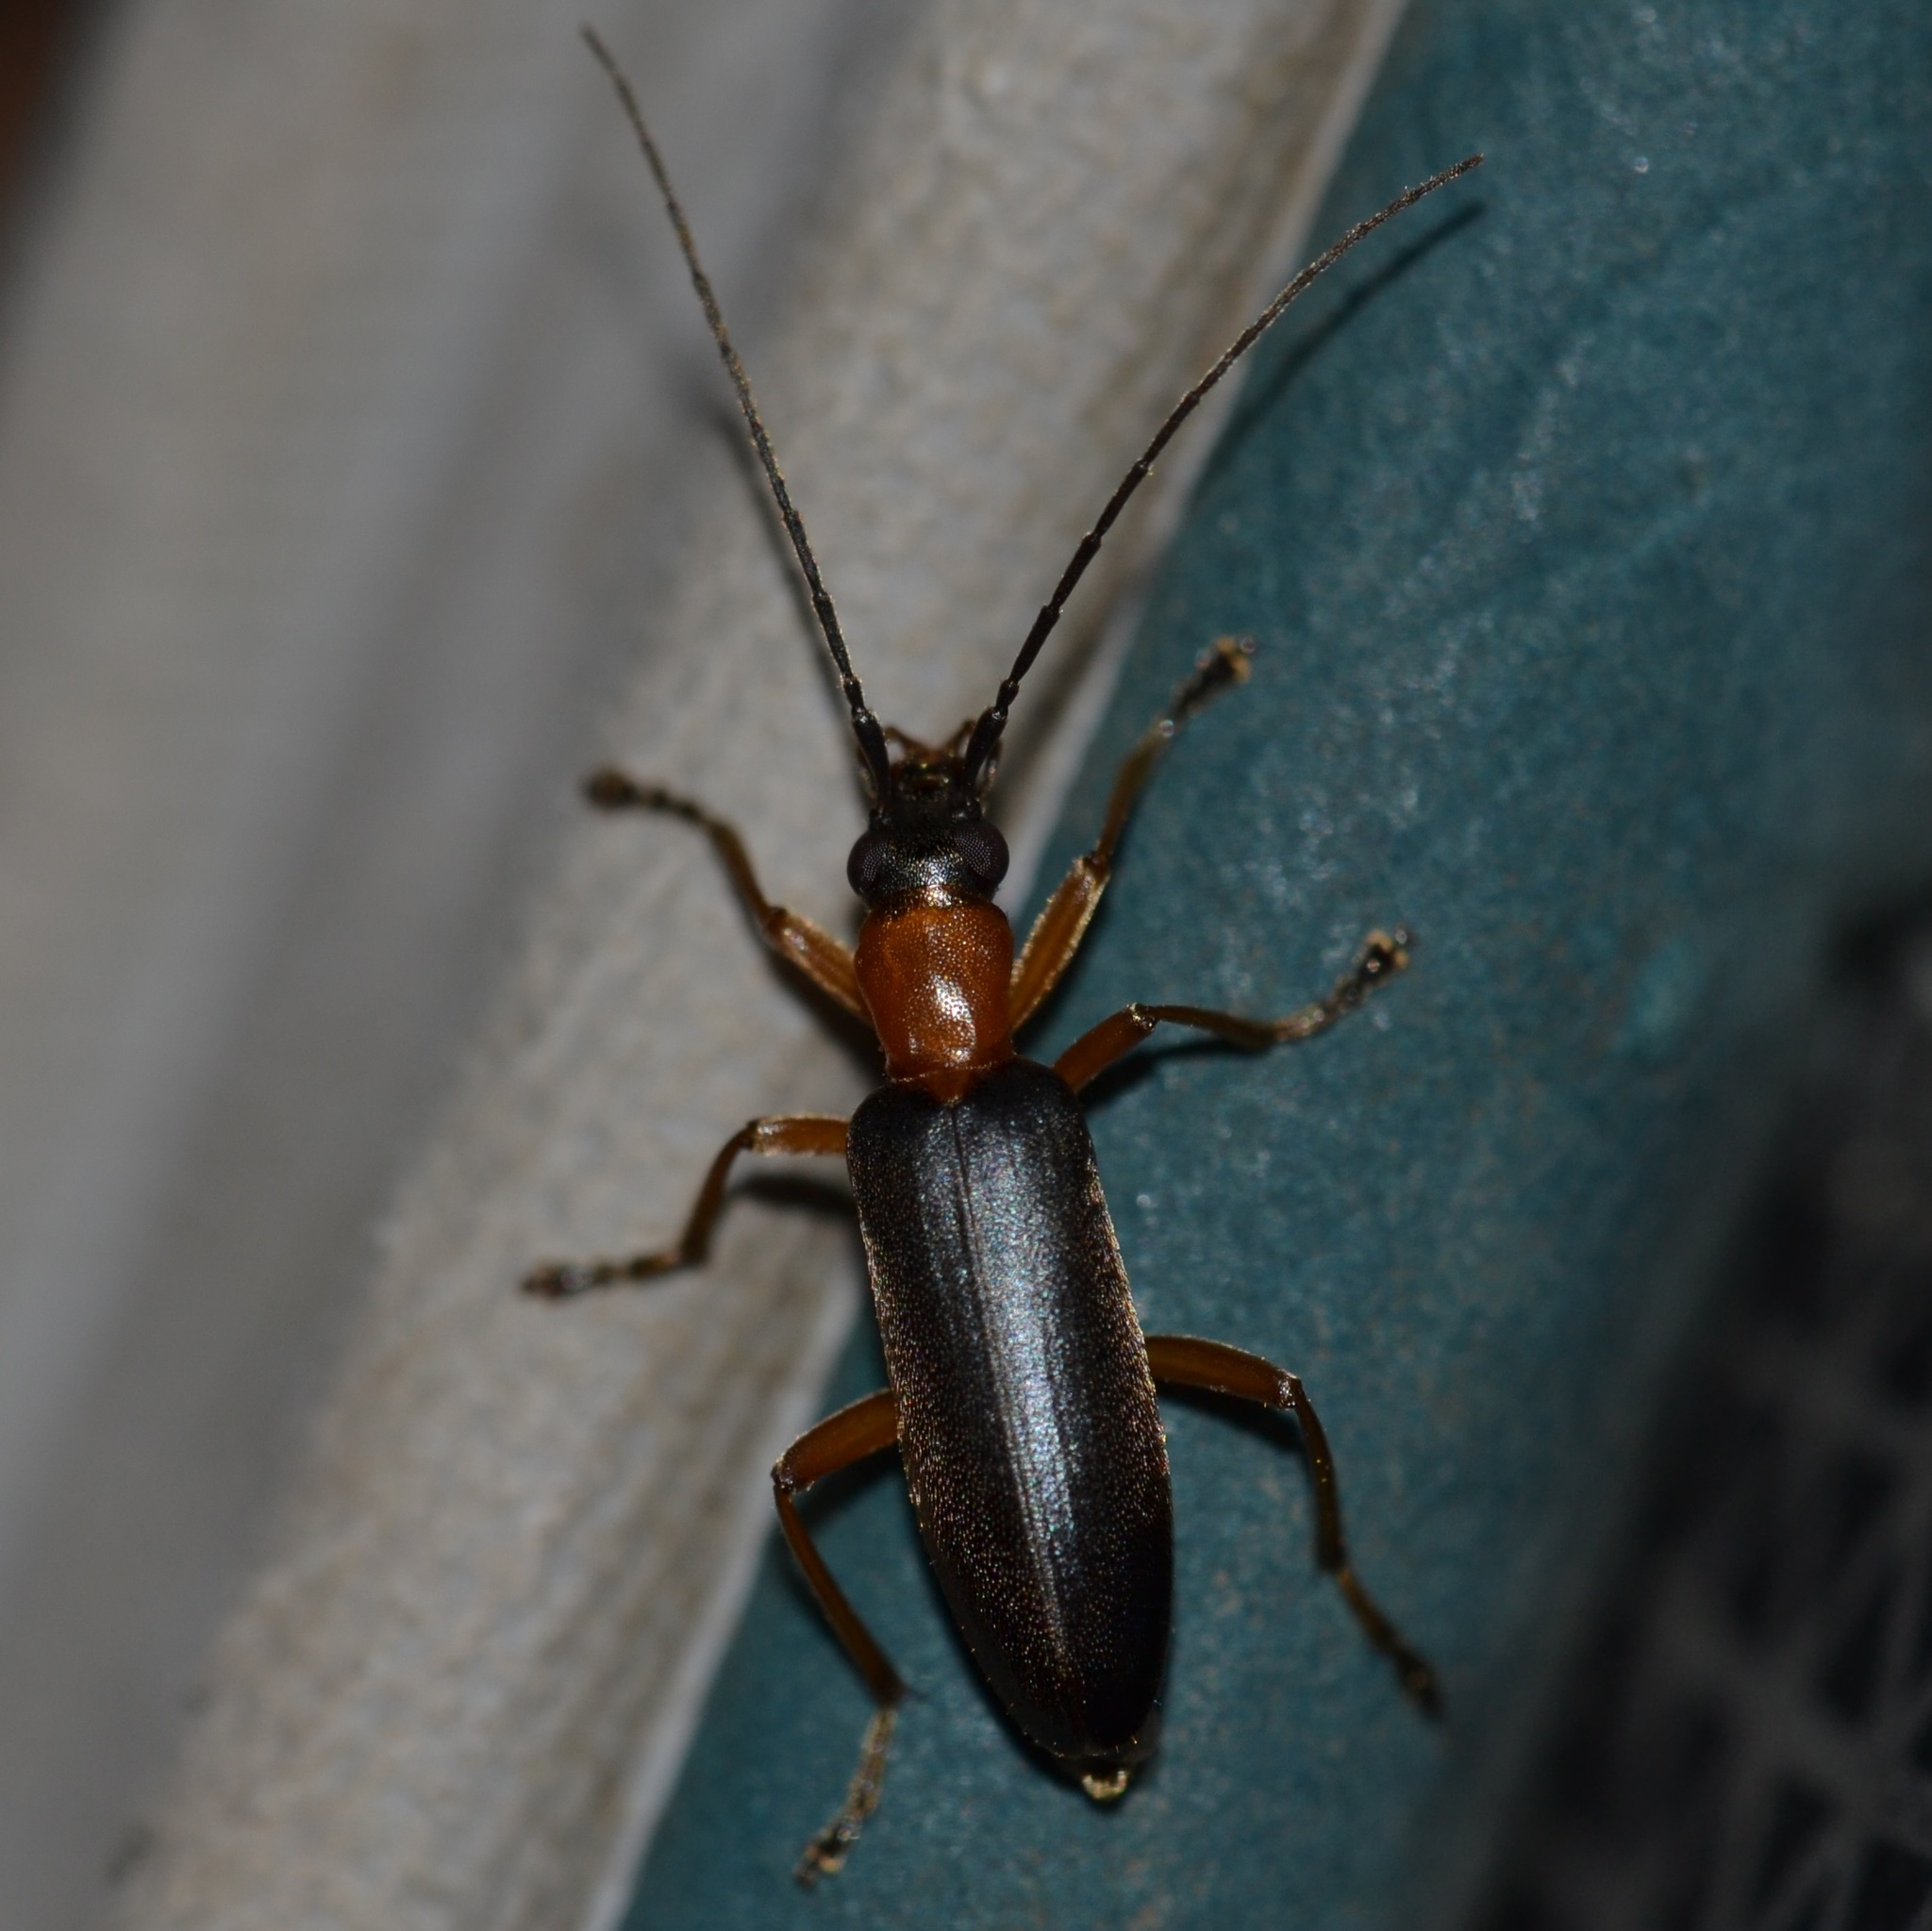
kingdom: Animalia
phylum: Arthropoda
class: Insecta
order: Coleoptera
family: Oedemeridae
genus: Ananca
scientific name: Ananca bicolor
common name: Red-black false blister-beetle
